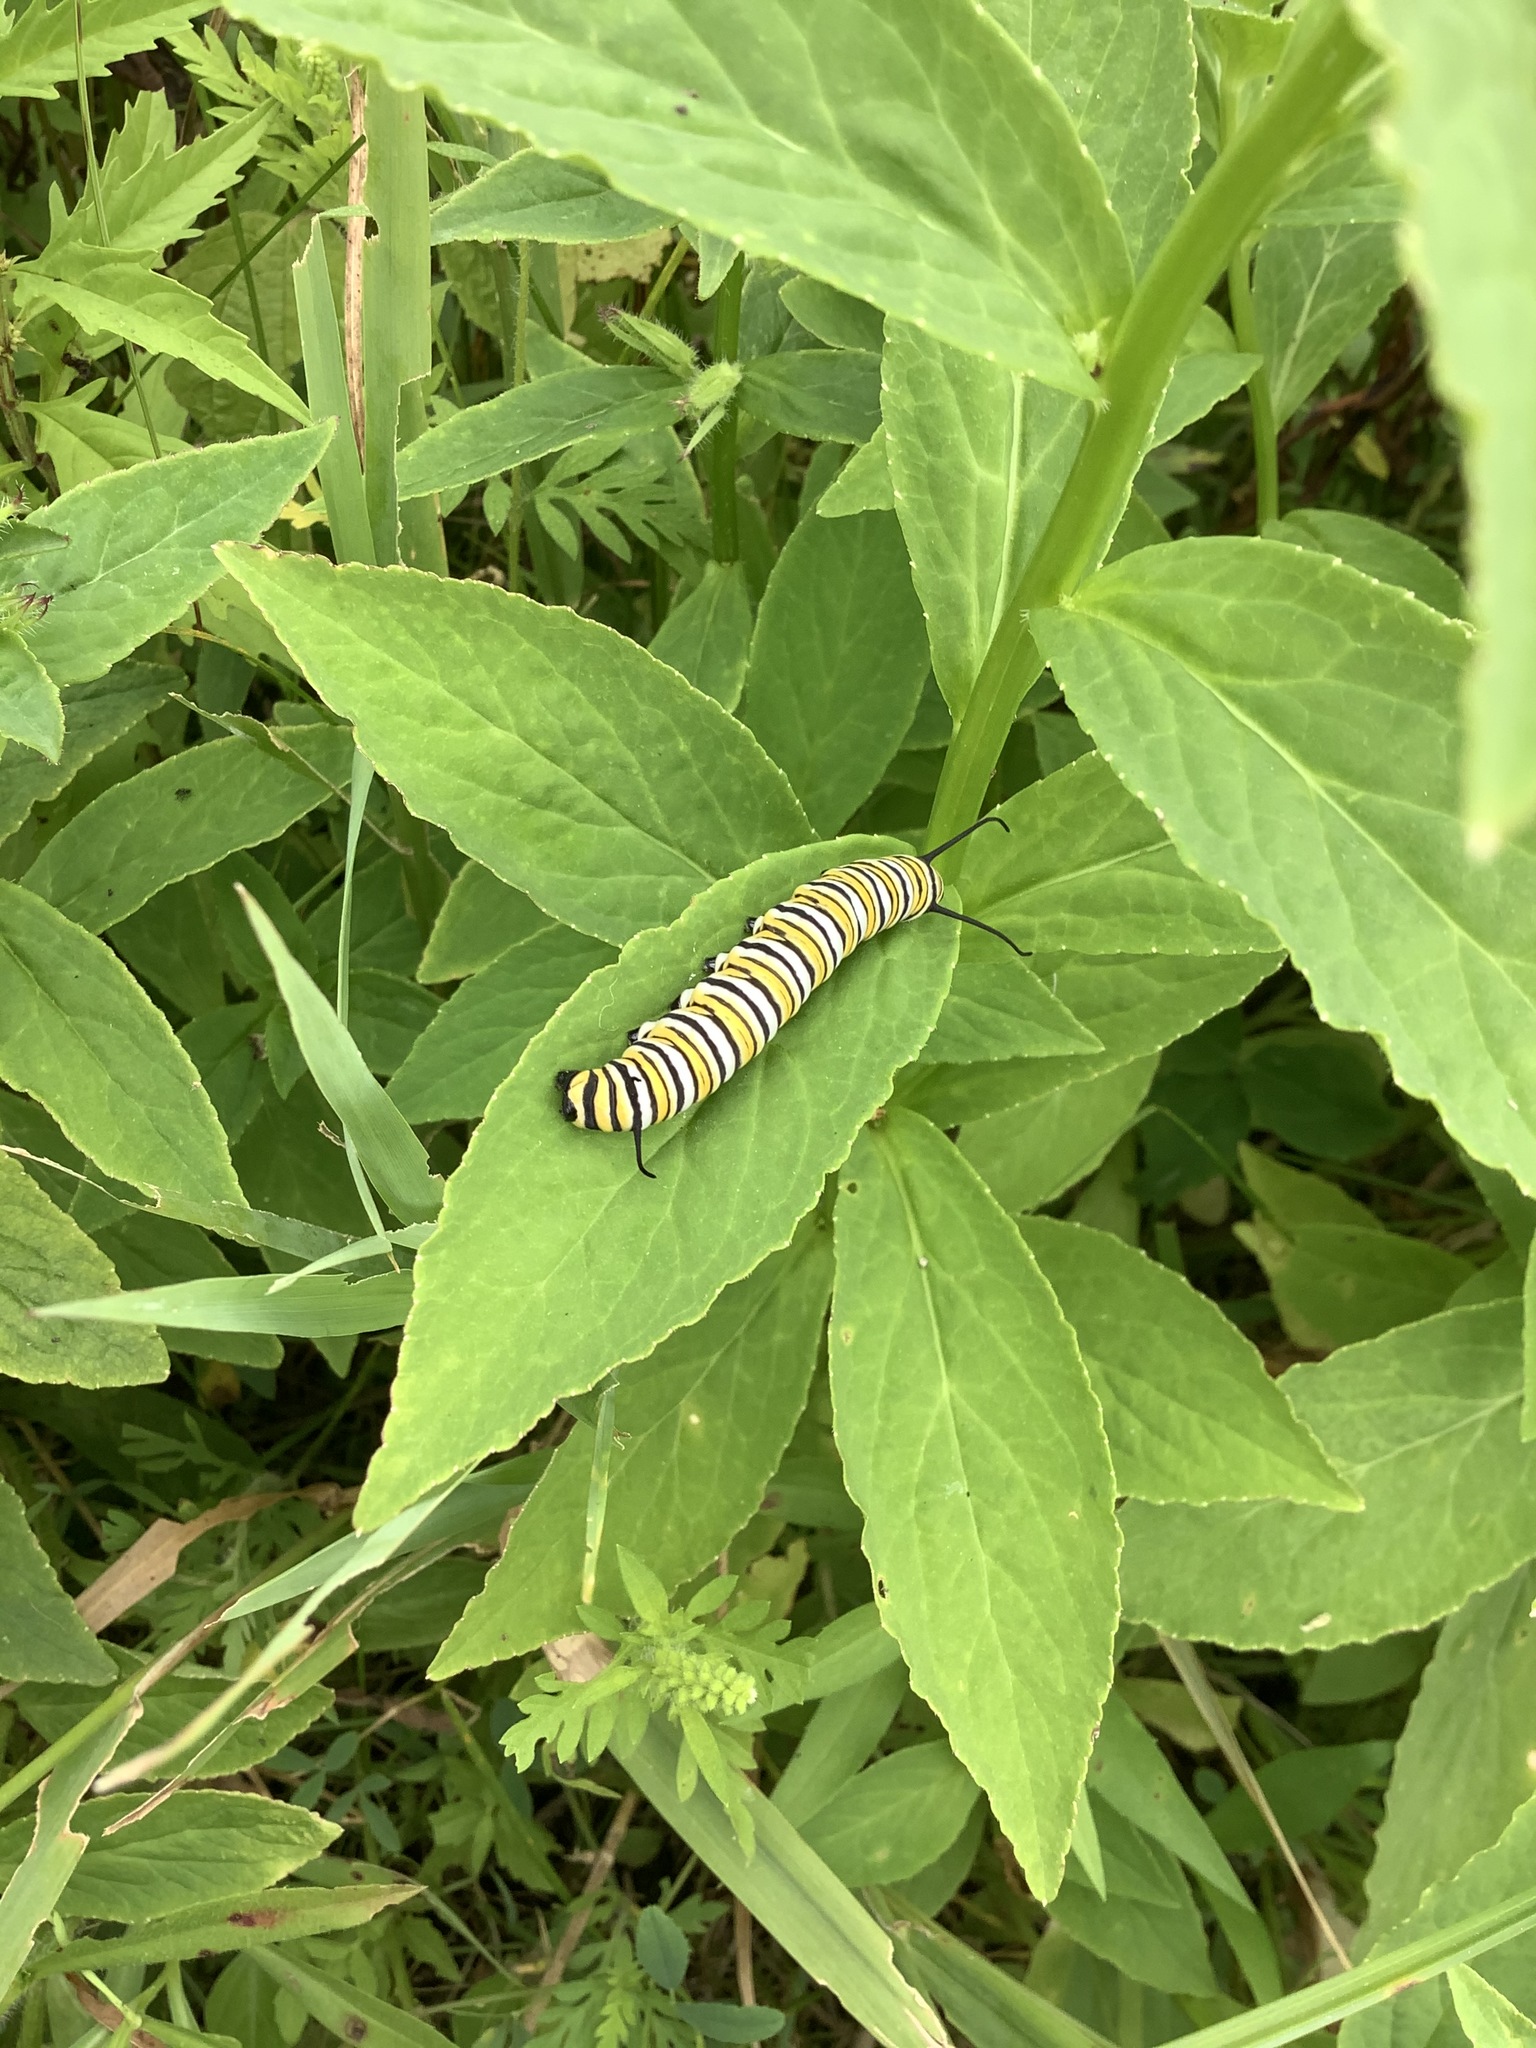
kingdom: Animalia
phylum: Arthropoda
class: Insecta
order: Lepidoptera
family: Nymphalidae
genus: Danaus
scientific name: Danaus plexippus
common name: Monarch
